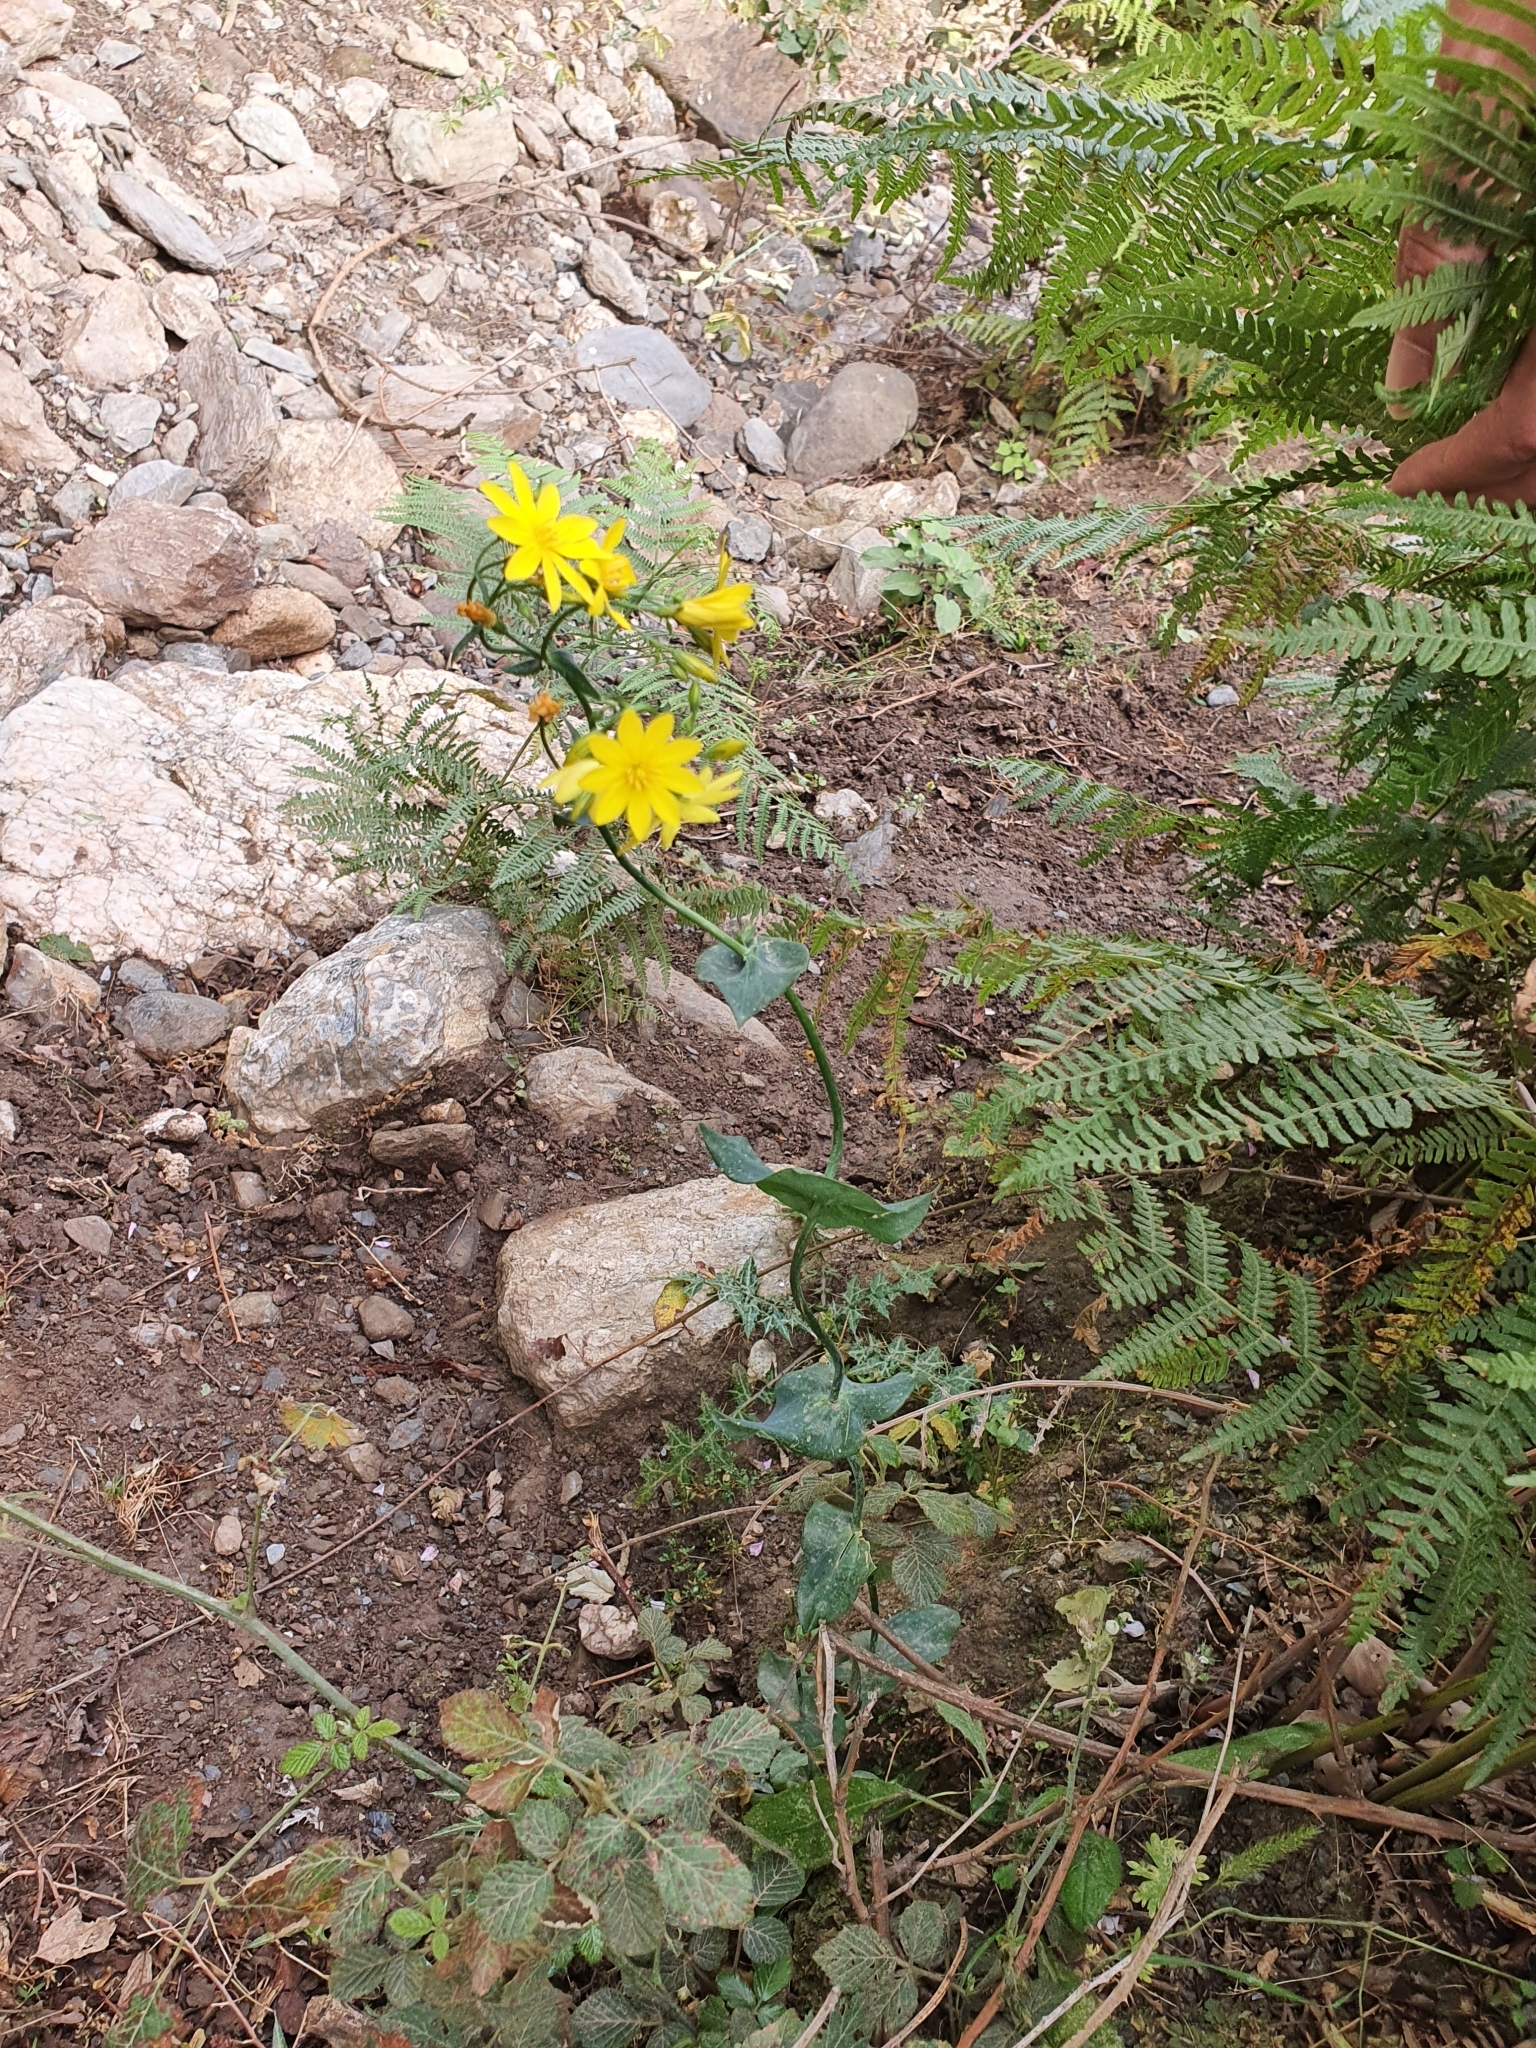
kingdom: Plantae
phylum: Tracheophyta
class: Magnoliopsida
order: Gentianales
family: Gentianaceae
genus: Blackstonia
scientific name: Blackstonia grandiflora
